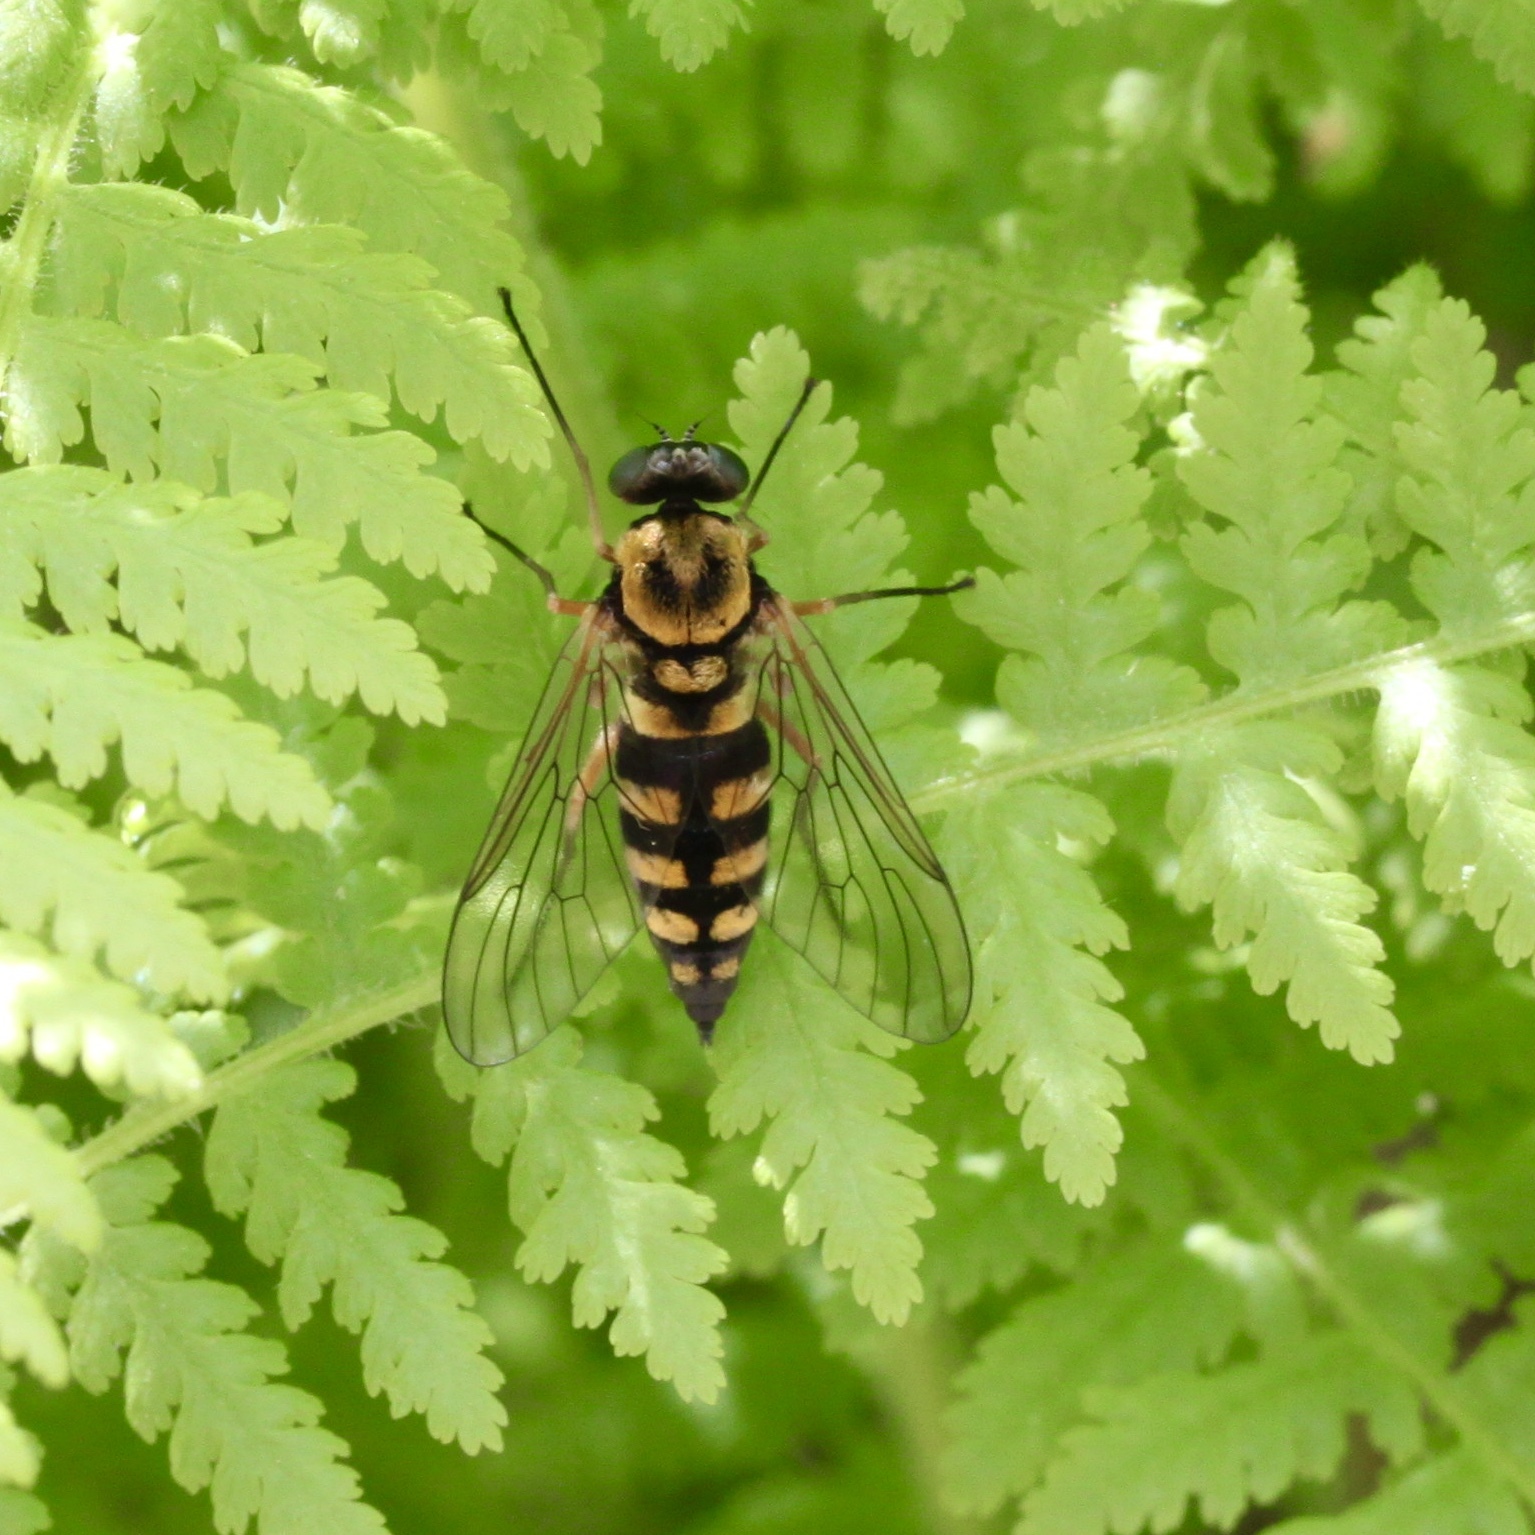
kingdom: Animalia
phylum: Arthropoda
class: Insecta
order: Diptera
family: Rhagionidae
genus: Chrysopilus
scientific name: Chrysopilus ornatus
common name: Ornate snipe fly
